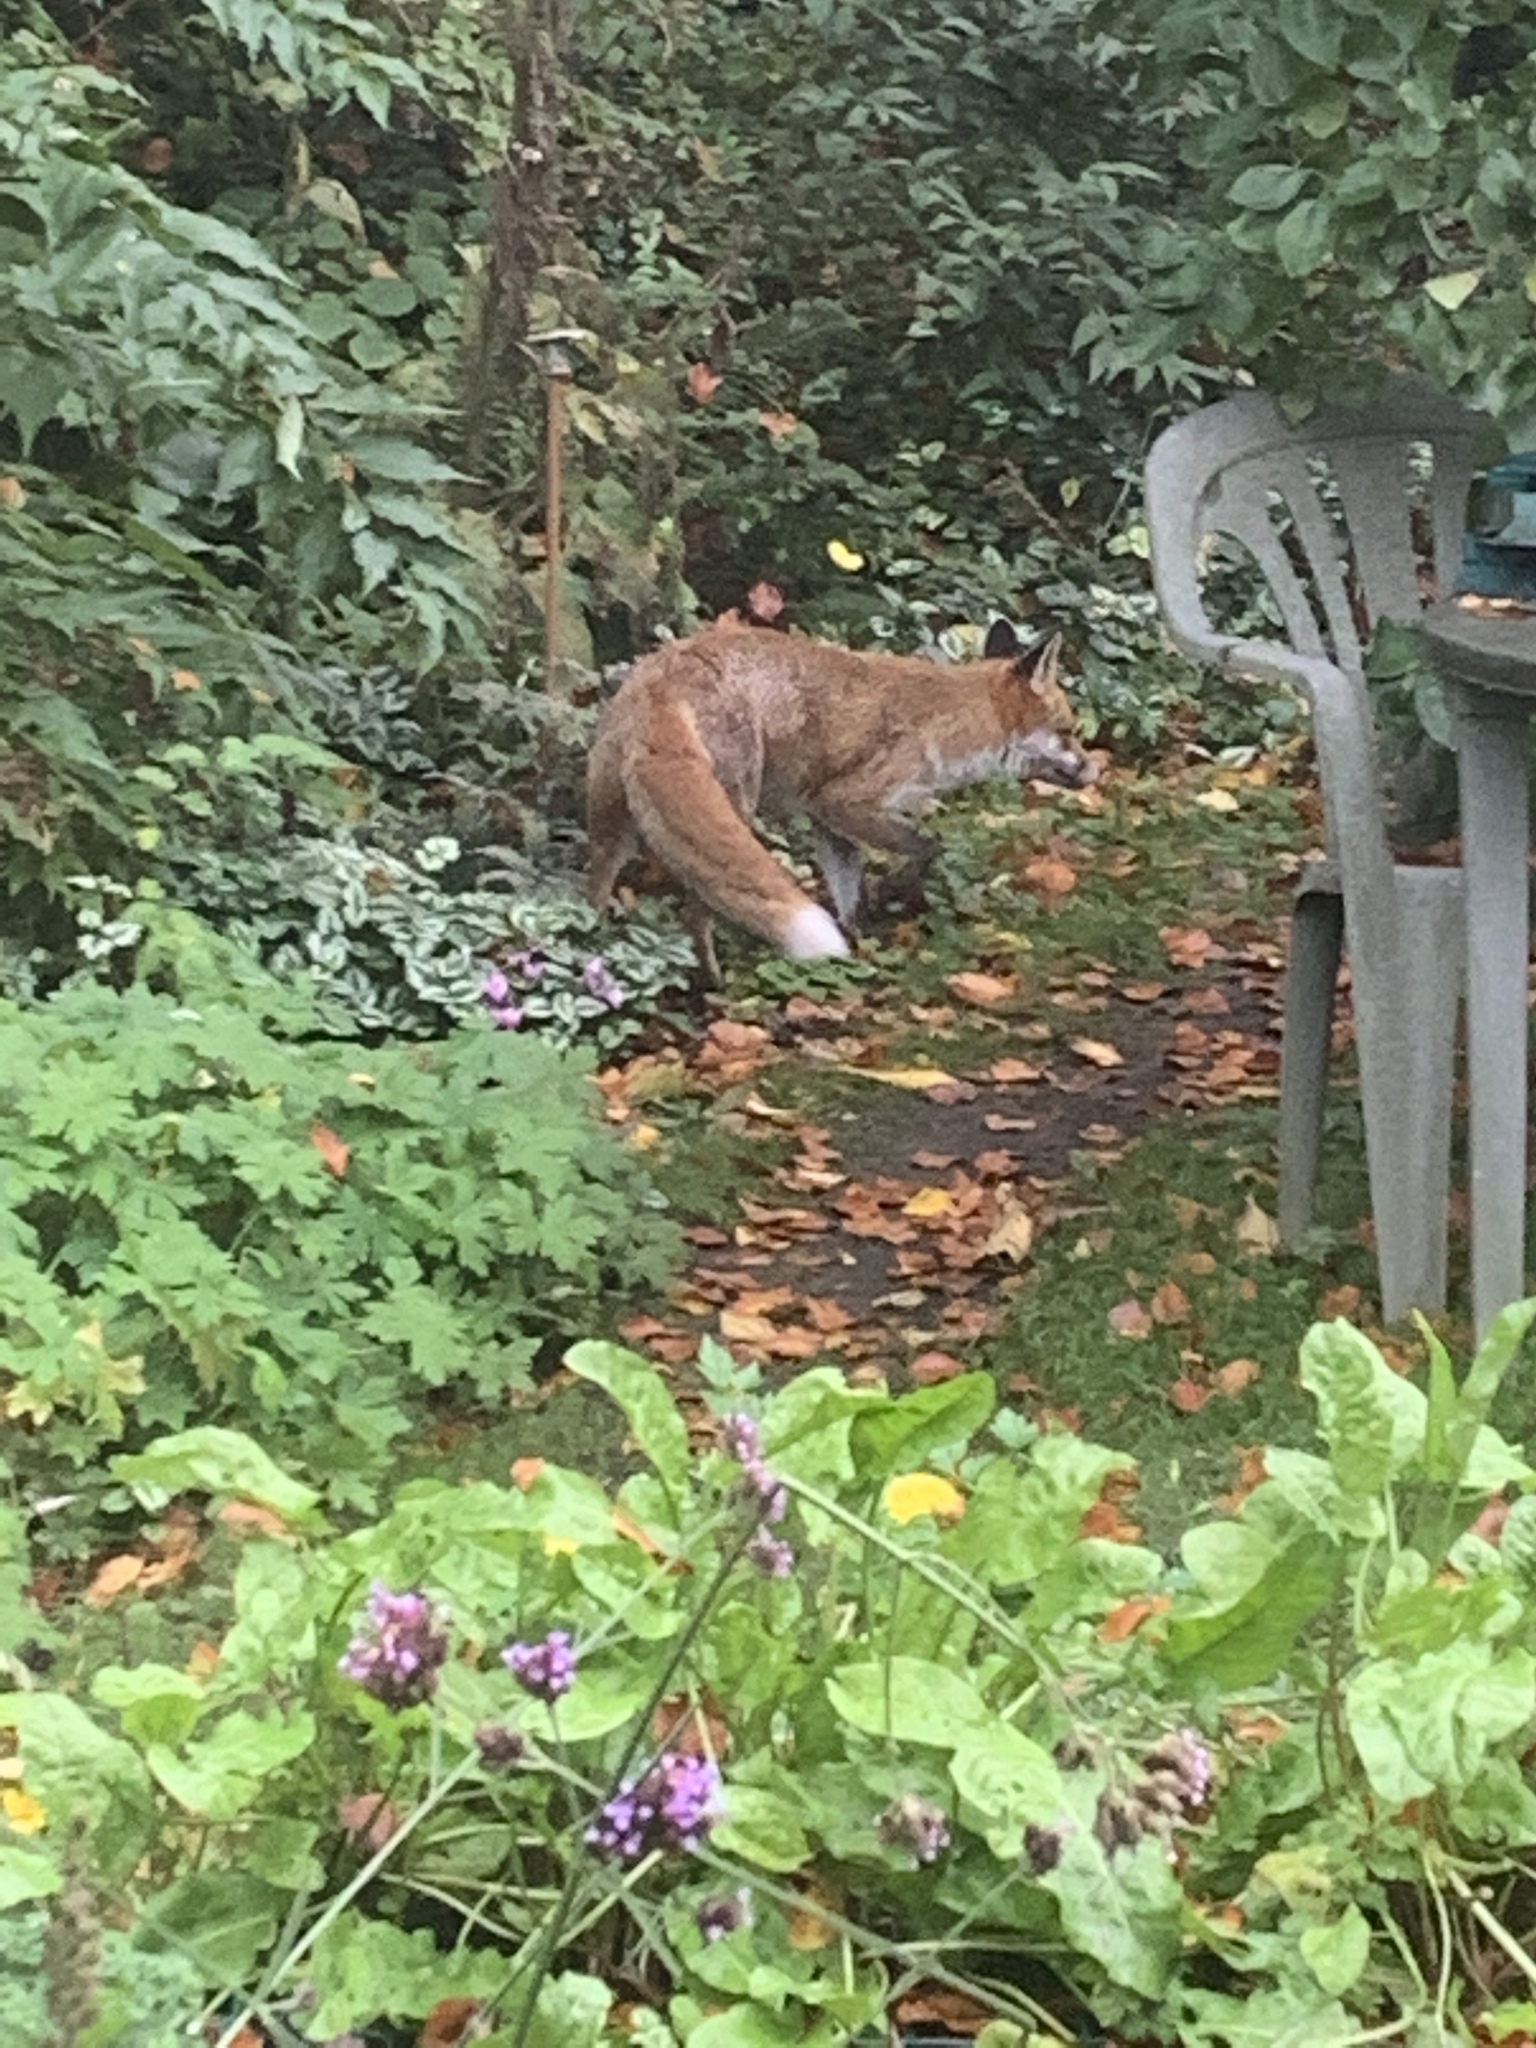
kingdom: Animalia
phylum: Chordata
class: Mammalia
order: Carnivora
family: Canidae
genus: Vulpes
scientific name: Vulpes vulpes
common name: Red fox
